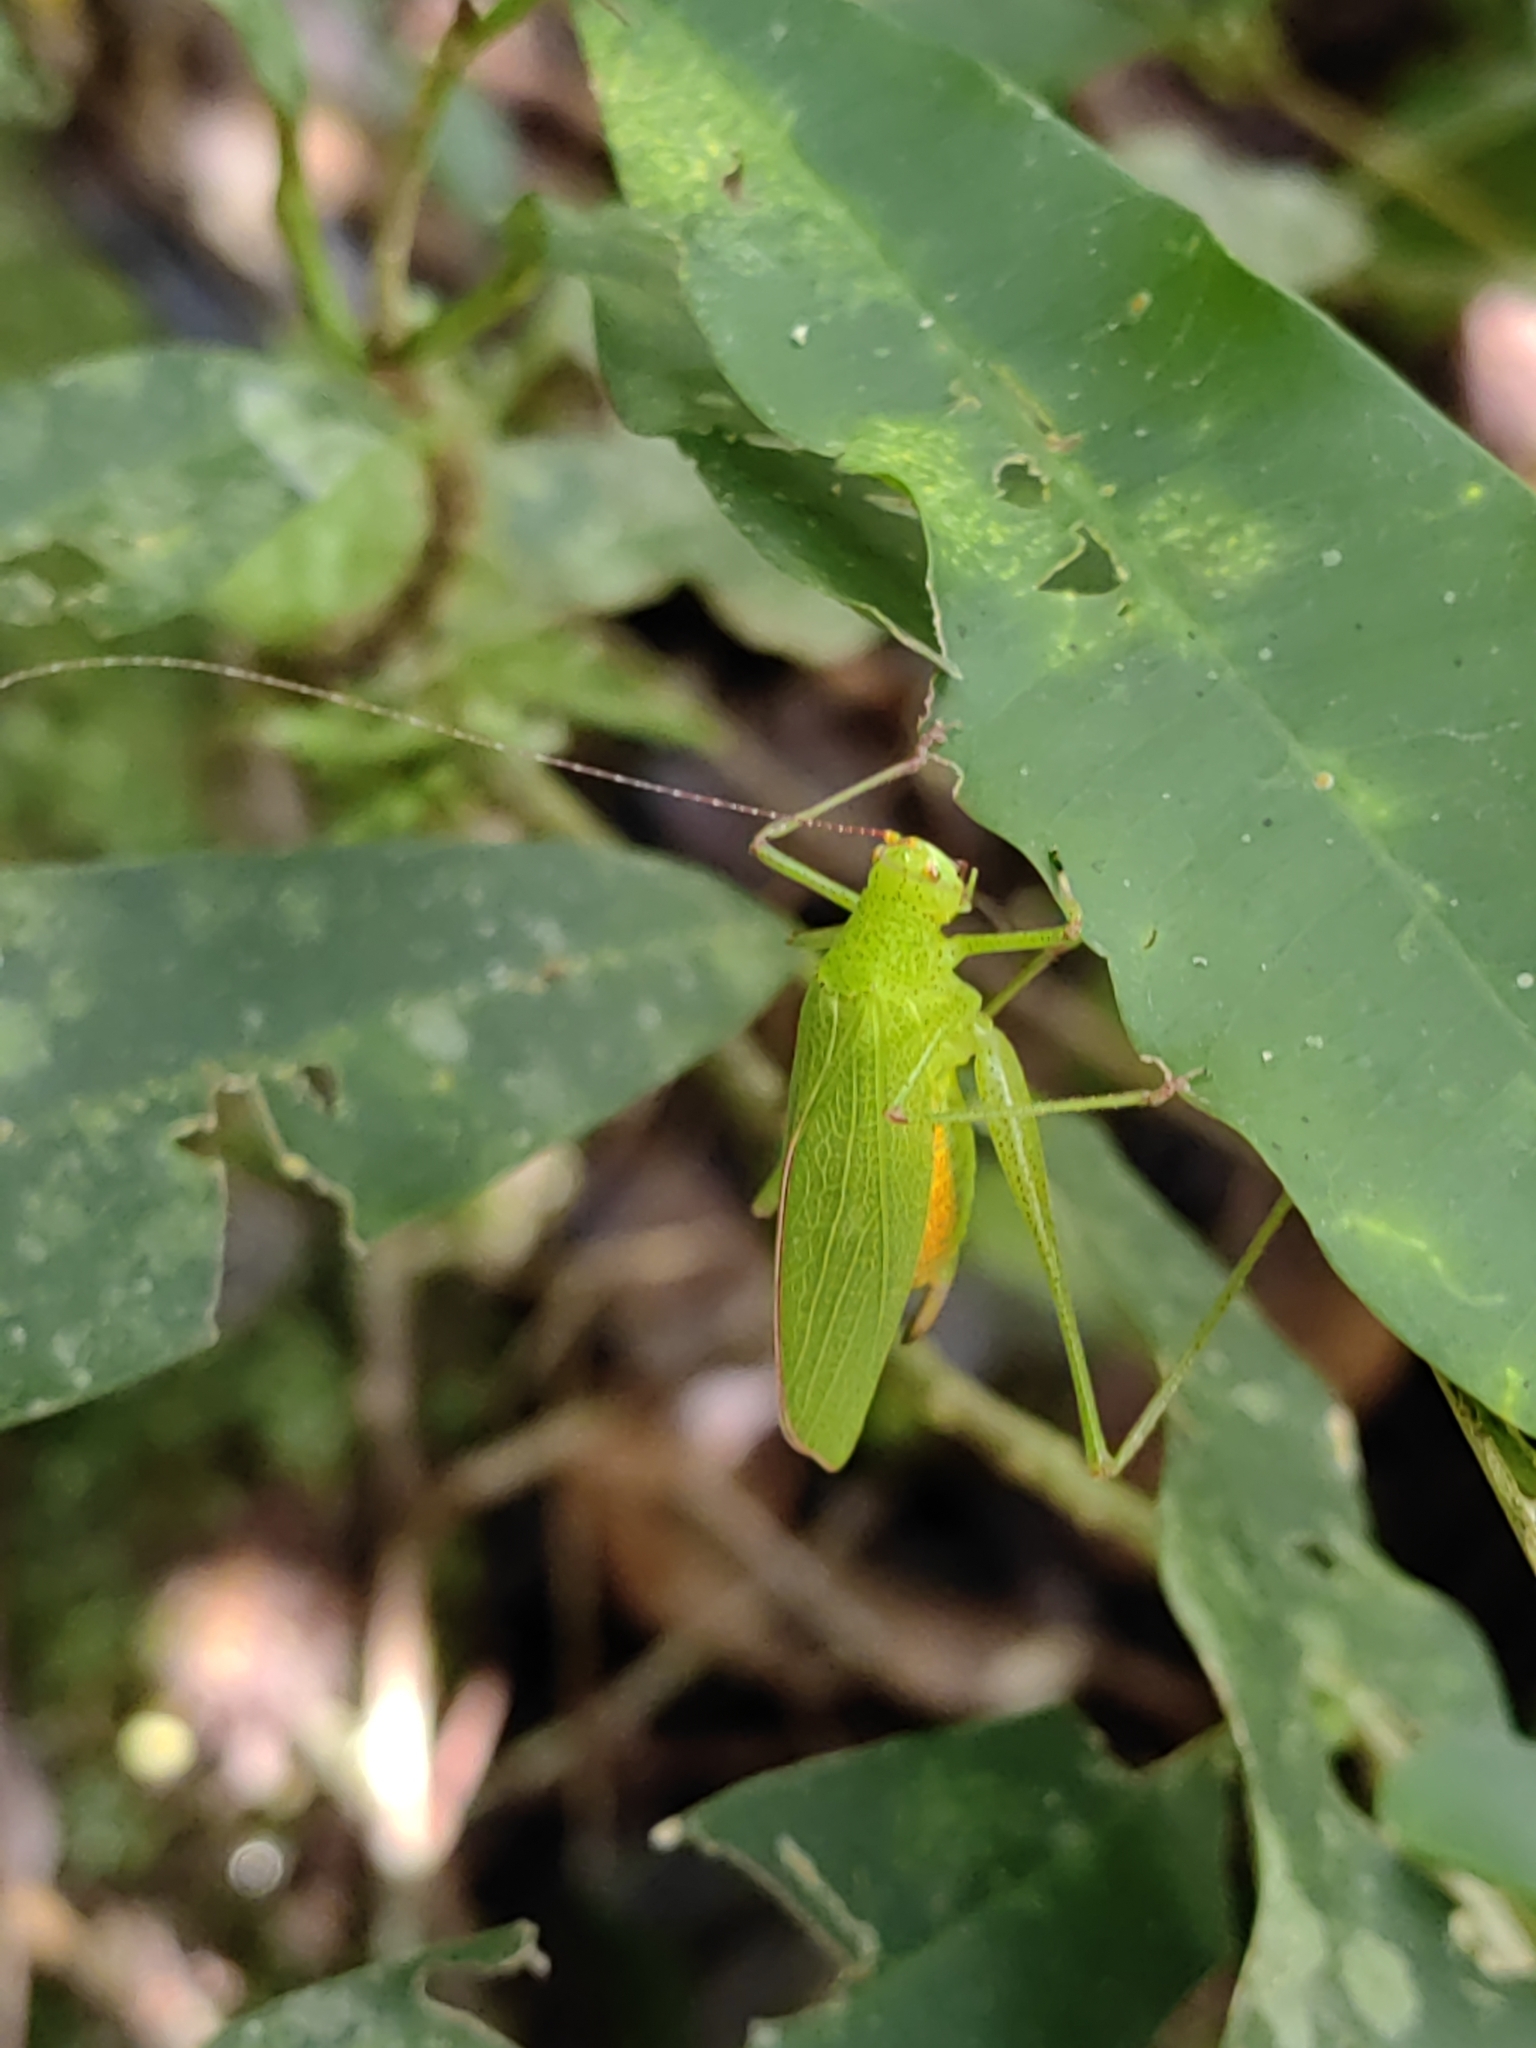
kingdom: Animalia
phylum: Arthropoda
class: Insecta
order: Orthoptera
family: Tettigoniidae
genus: Hyperphrona
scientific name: Hyperphrona signata
